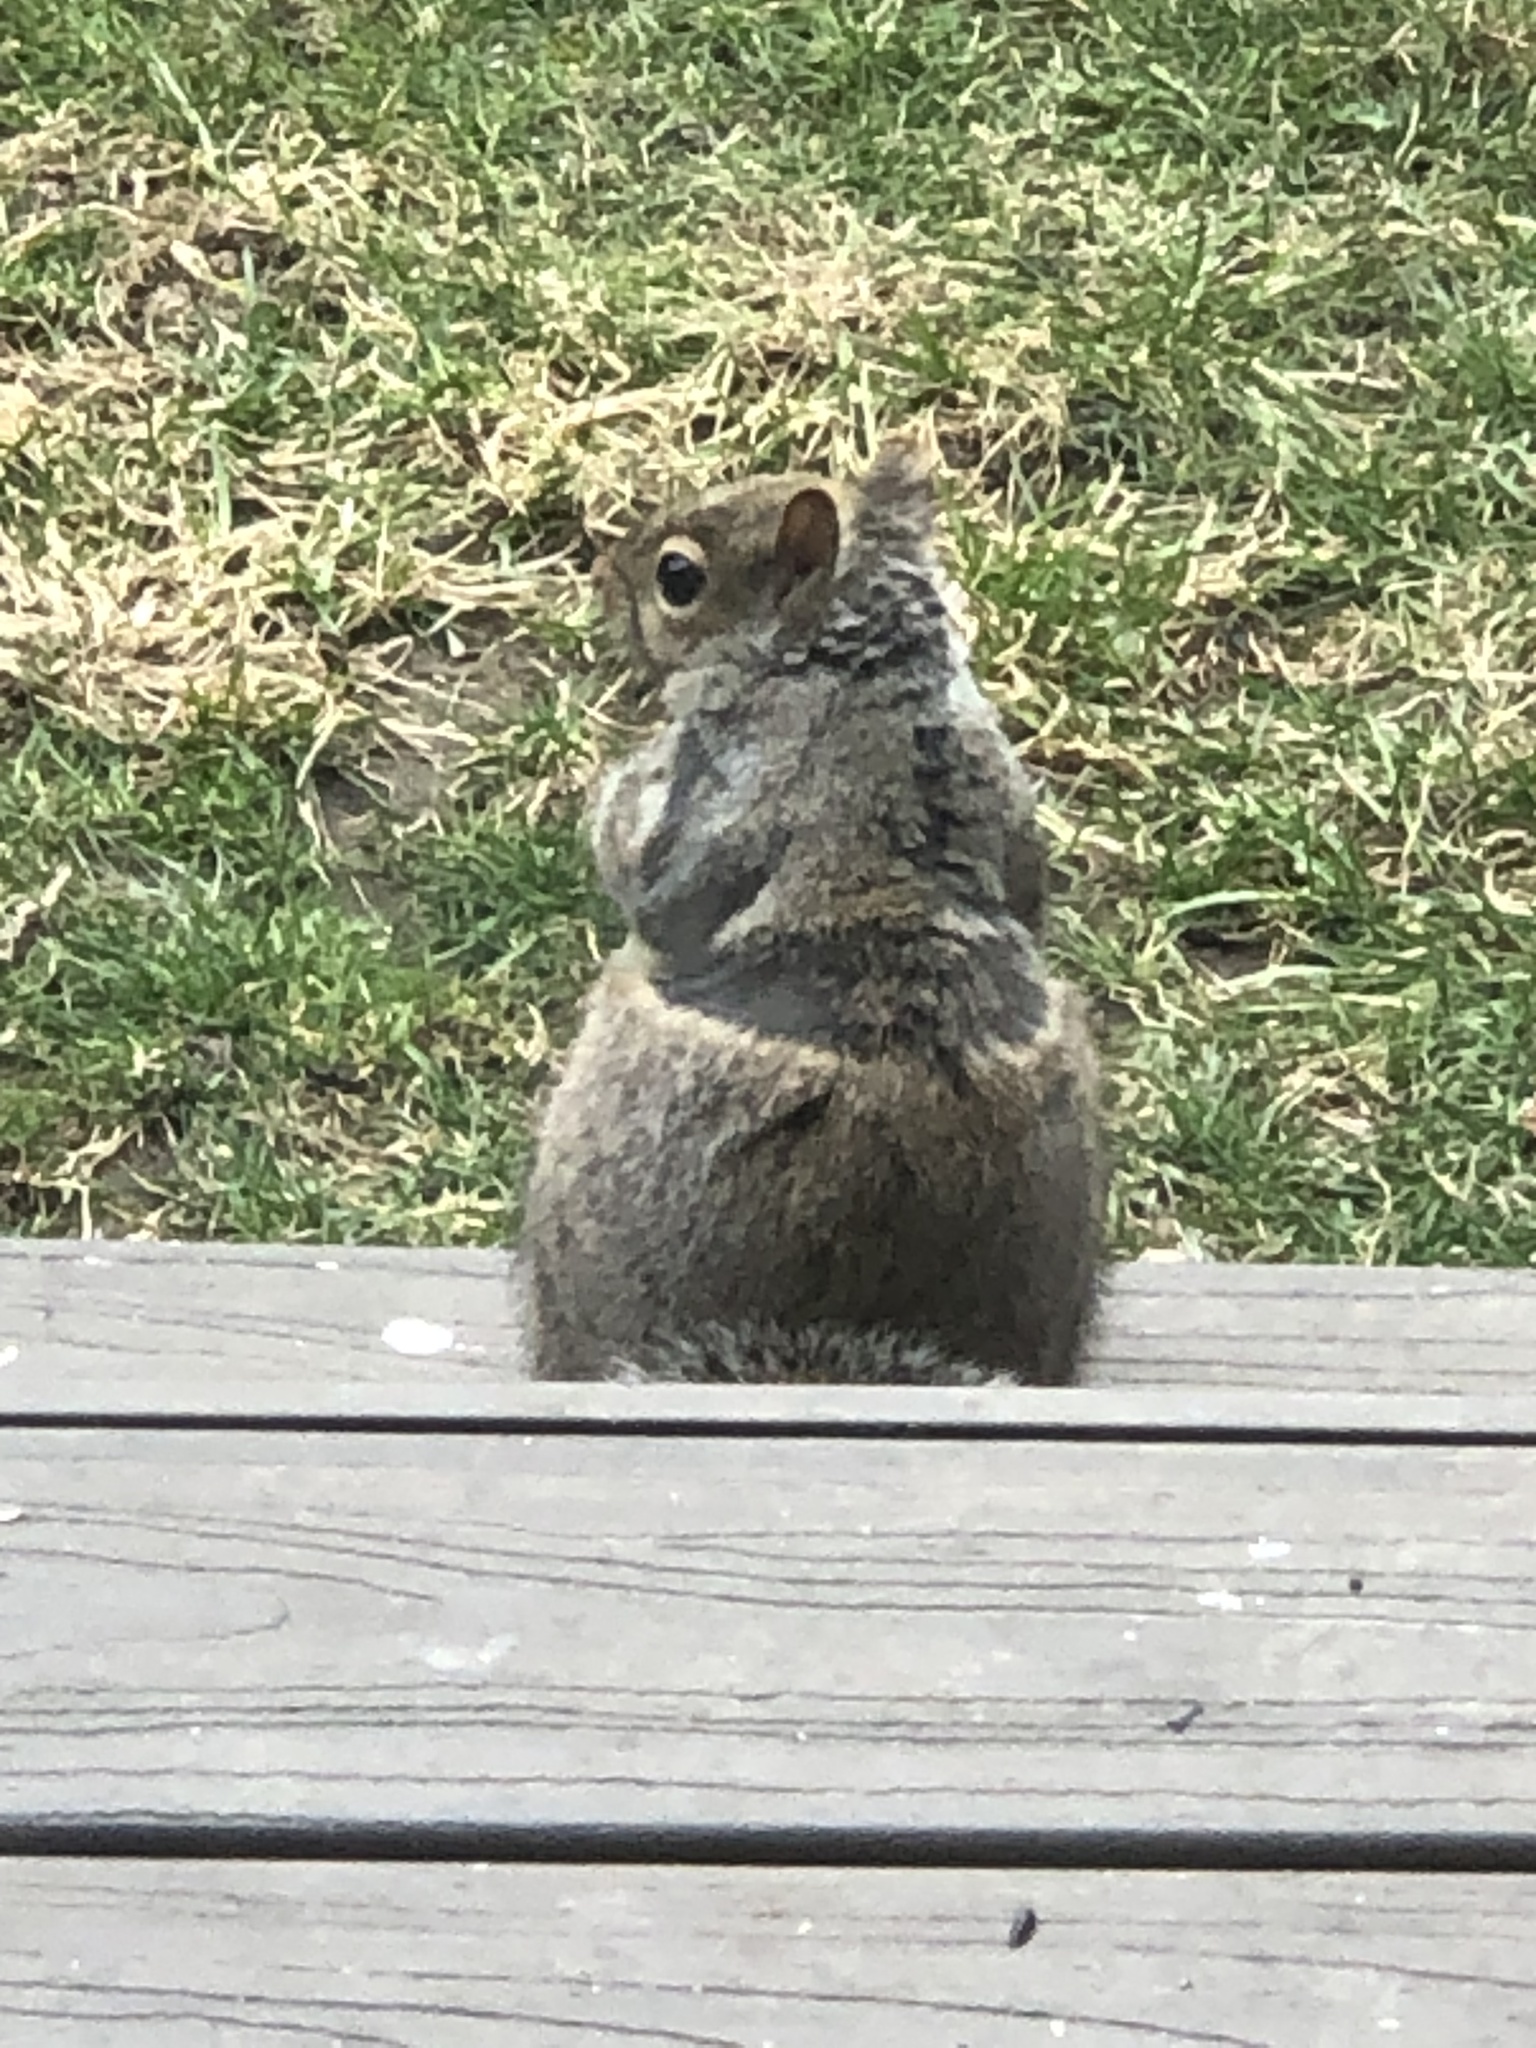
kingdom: Animalia
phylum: Chordata
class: Mammalia
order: Rodentia
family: Sciuridae
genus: Sciurus
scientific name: Sciurus carolinensis
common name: Eastern gray squirrel
